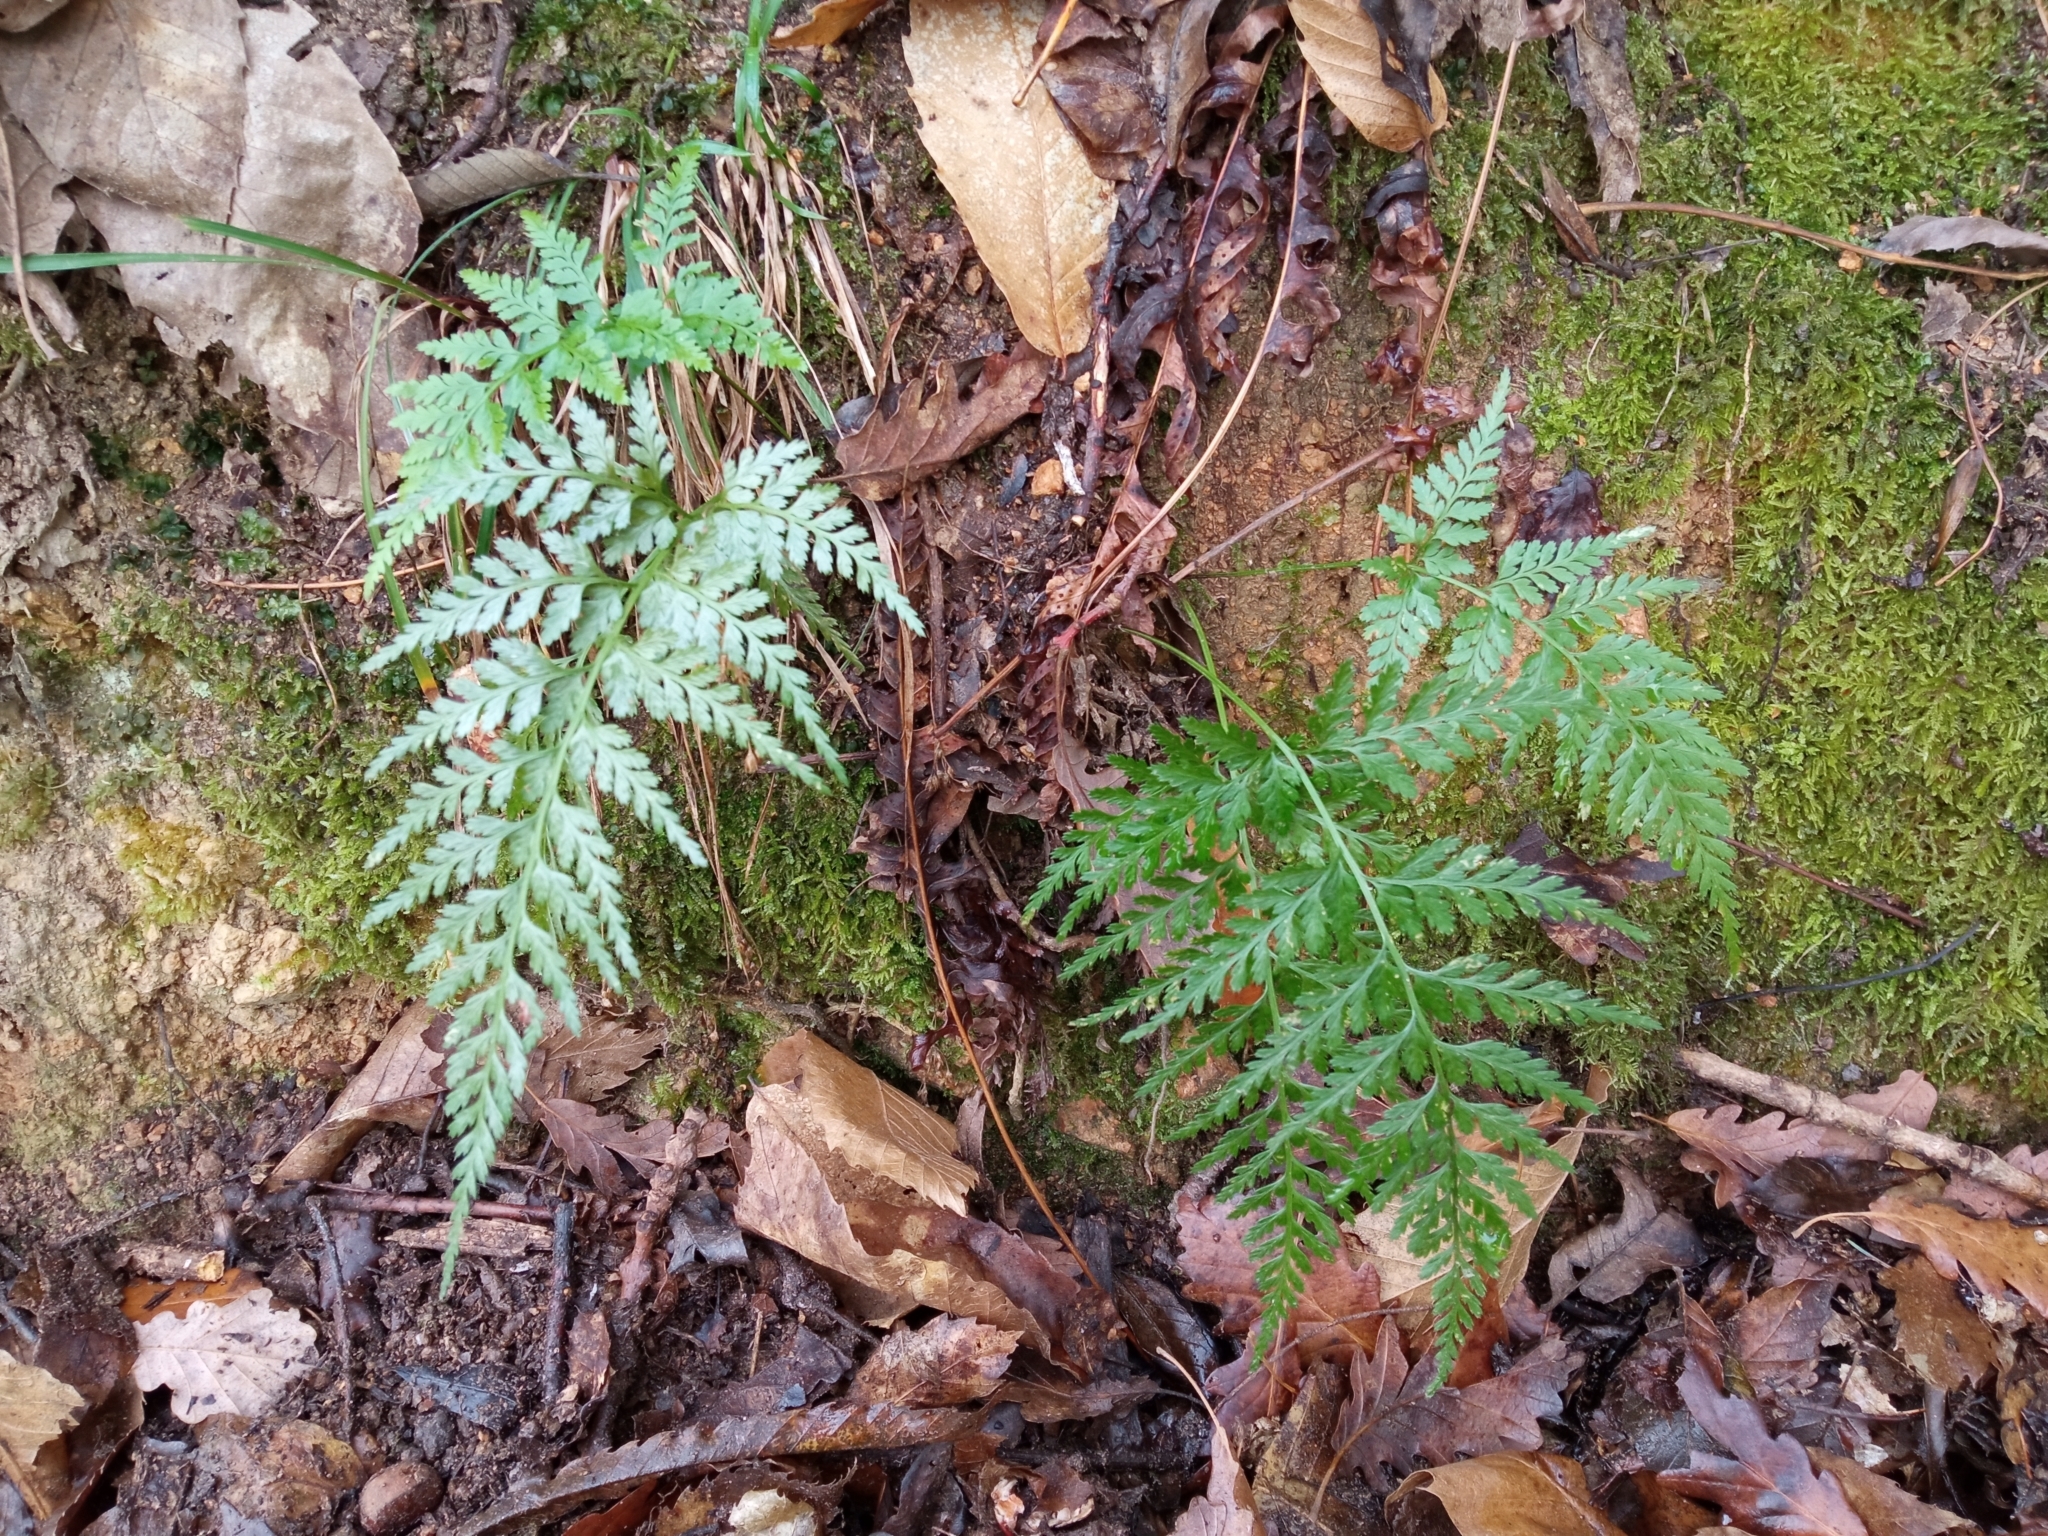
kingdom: Plantae
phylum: Tracheophyta
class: Polypodiopsida
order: Polypodiales
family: Aspleniaceae
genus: Asplenium
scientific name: Asplenium onopteris
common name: Irish spleenwort
